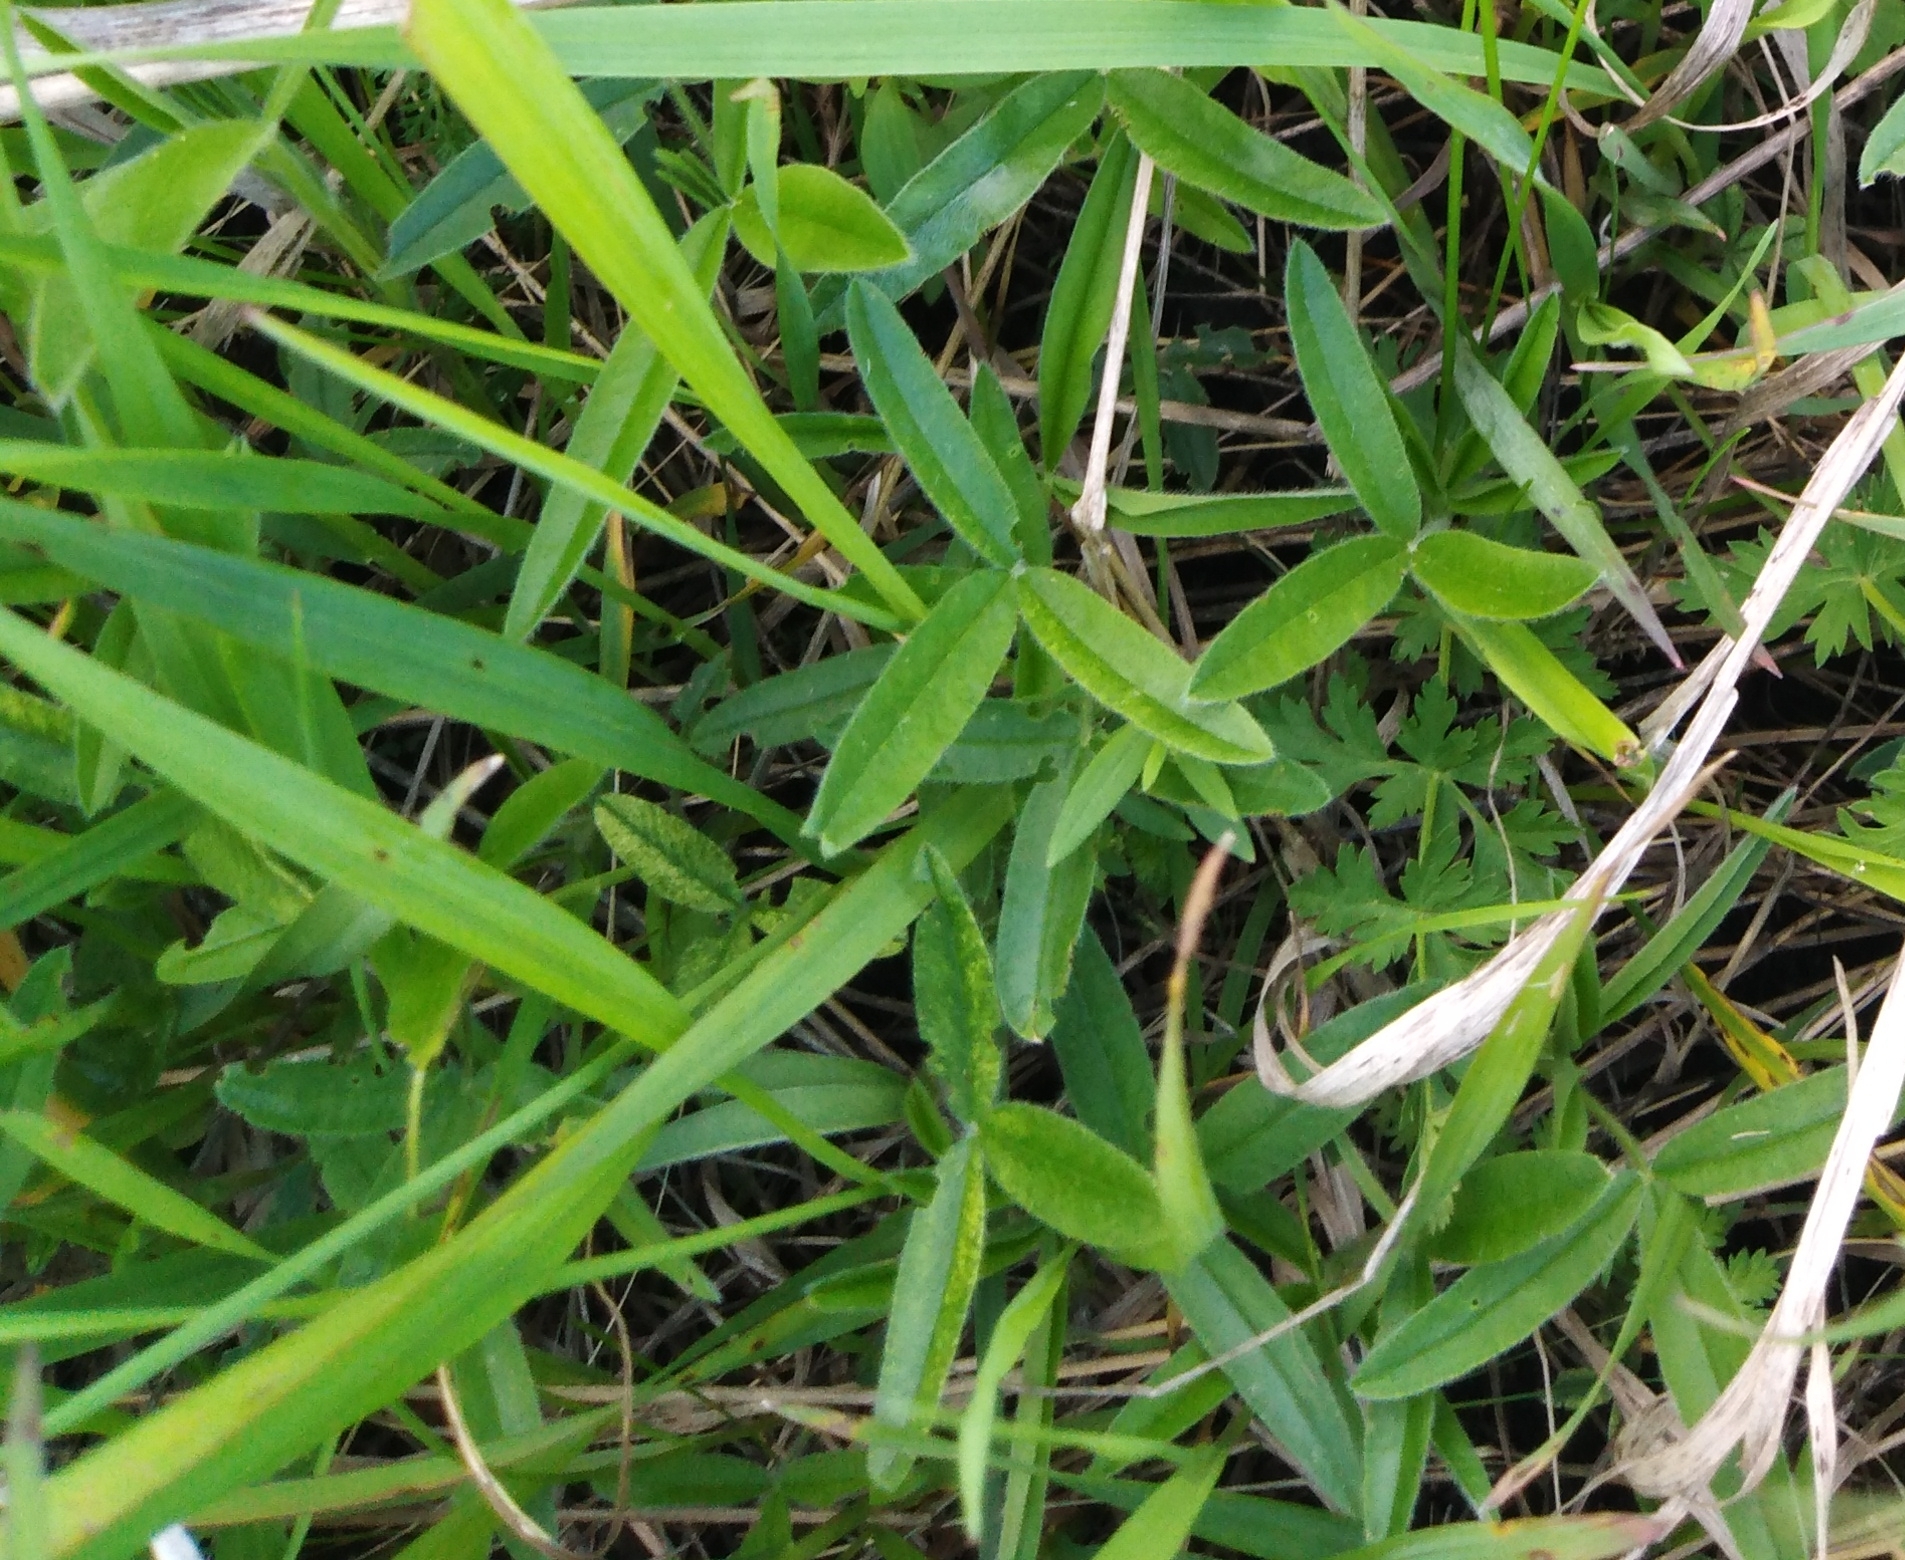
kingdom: Plantae
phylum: Tracheophyta
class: Magnoliopsida
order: Fabales
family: Fabaceae
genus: Trifolium
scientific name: Trifolium alpestre
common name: Owl-head clover
